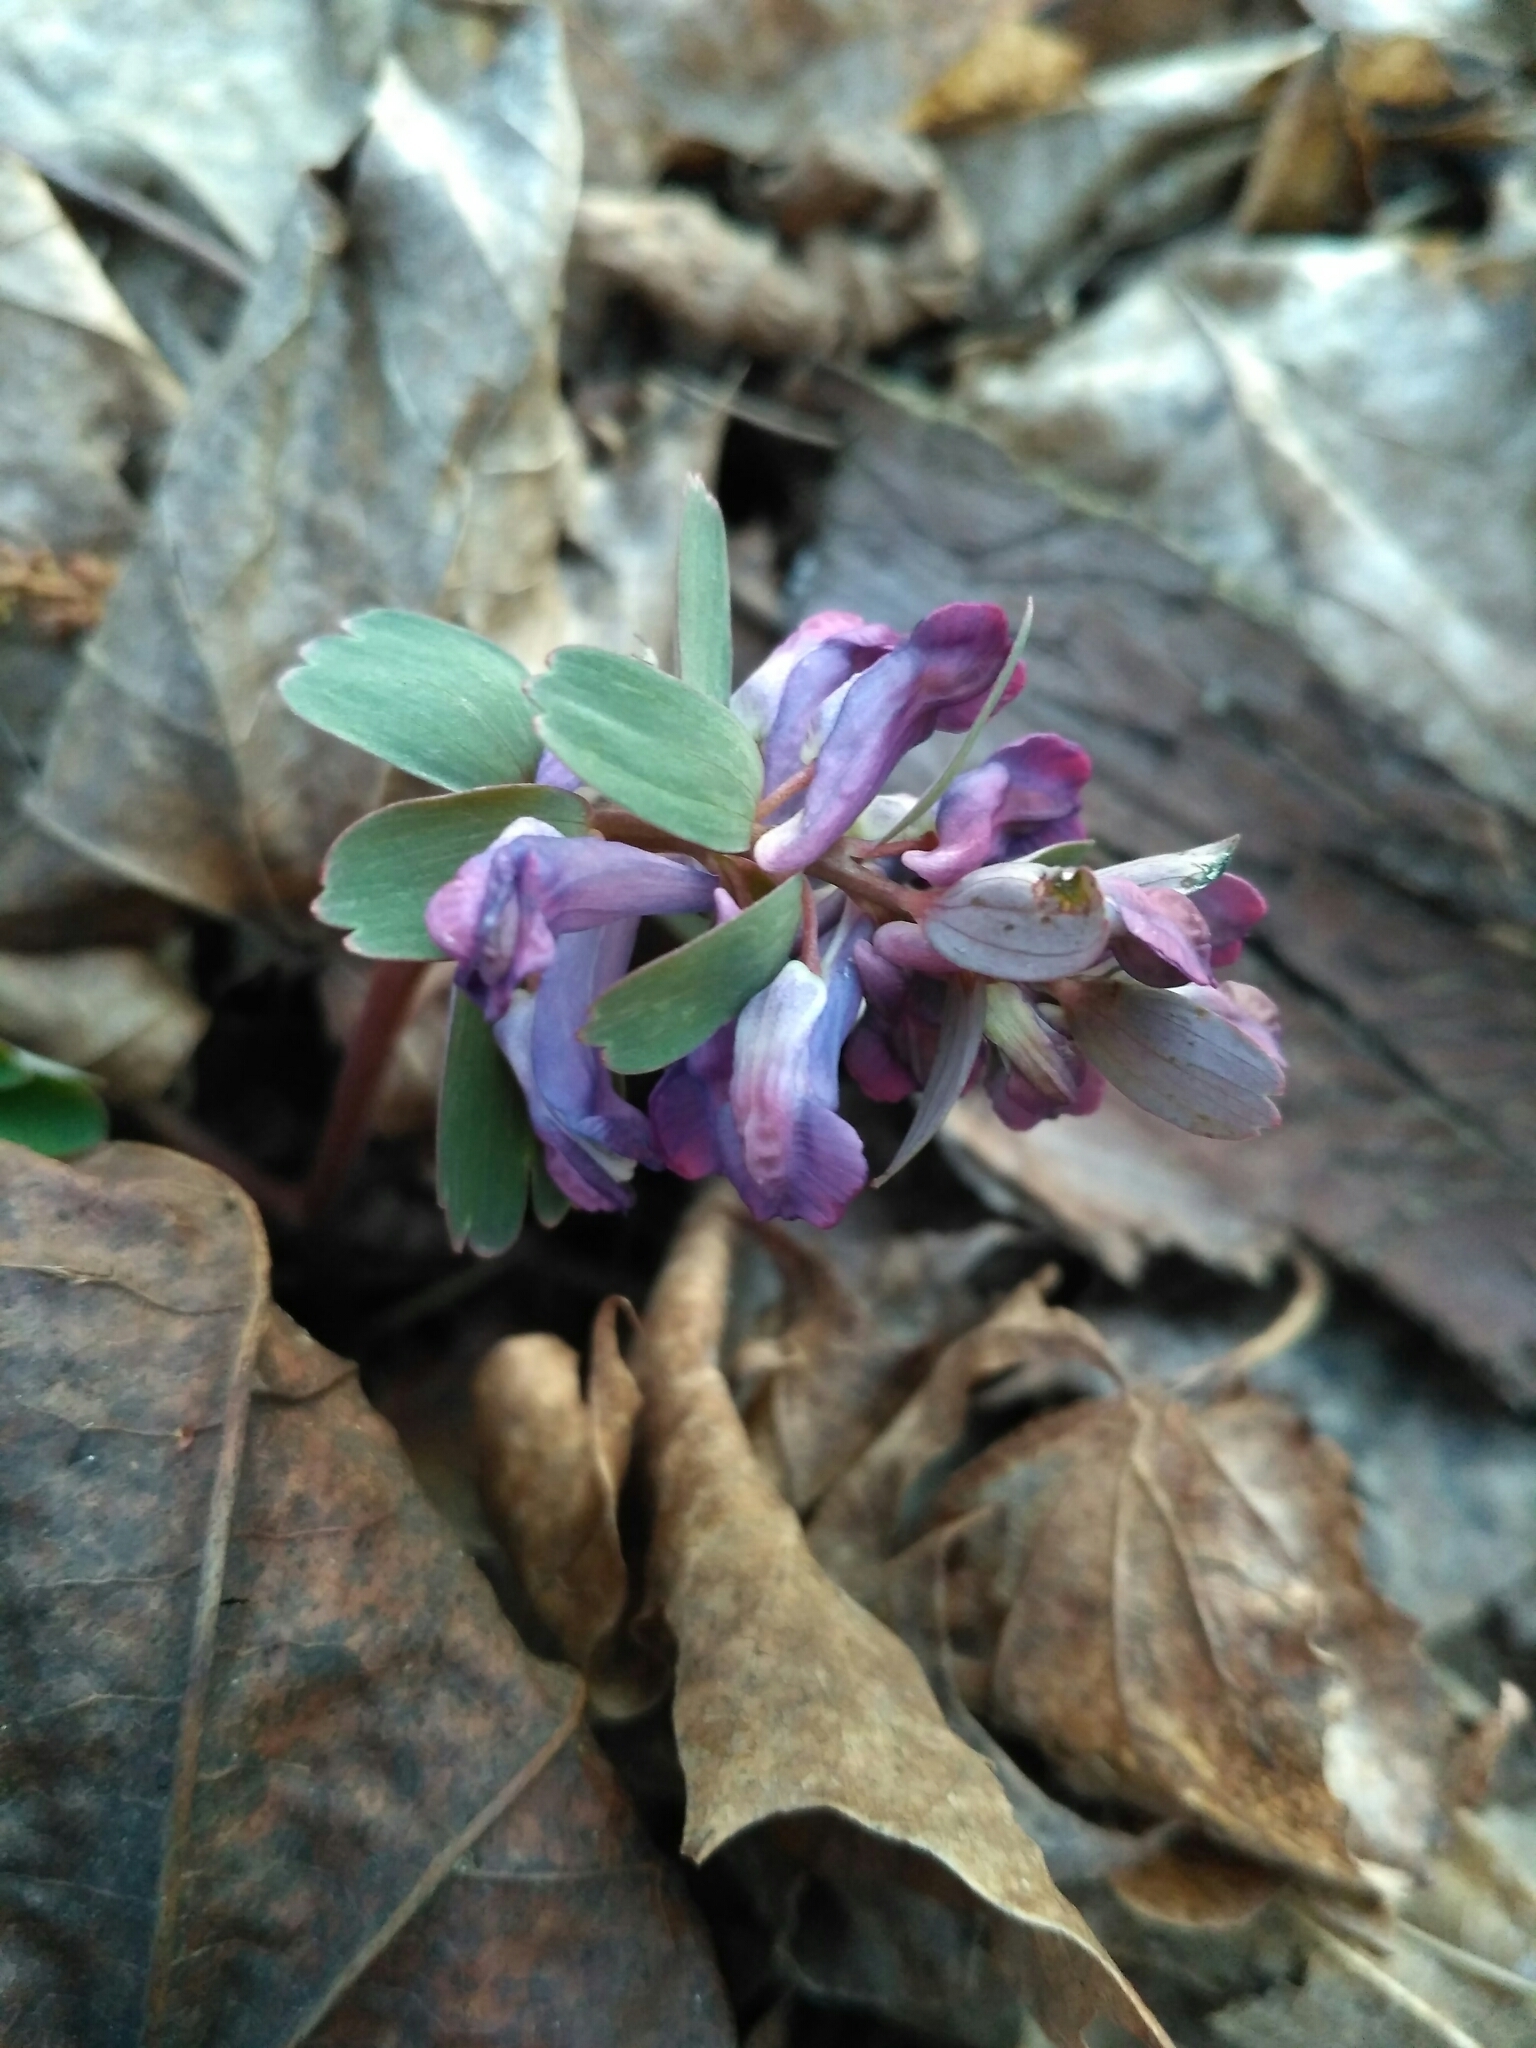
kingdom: Plantae
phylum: Tracheophyta
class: Magnoliopsida
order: Ranunculales
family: Papaveraceae
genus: Corydalis
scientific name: Corydalis solida
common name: Bird-in-a-bush
